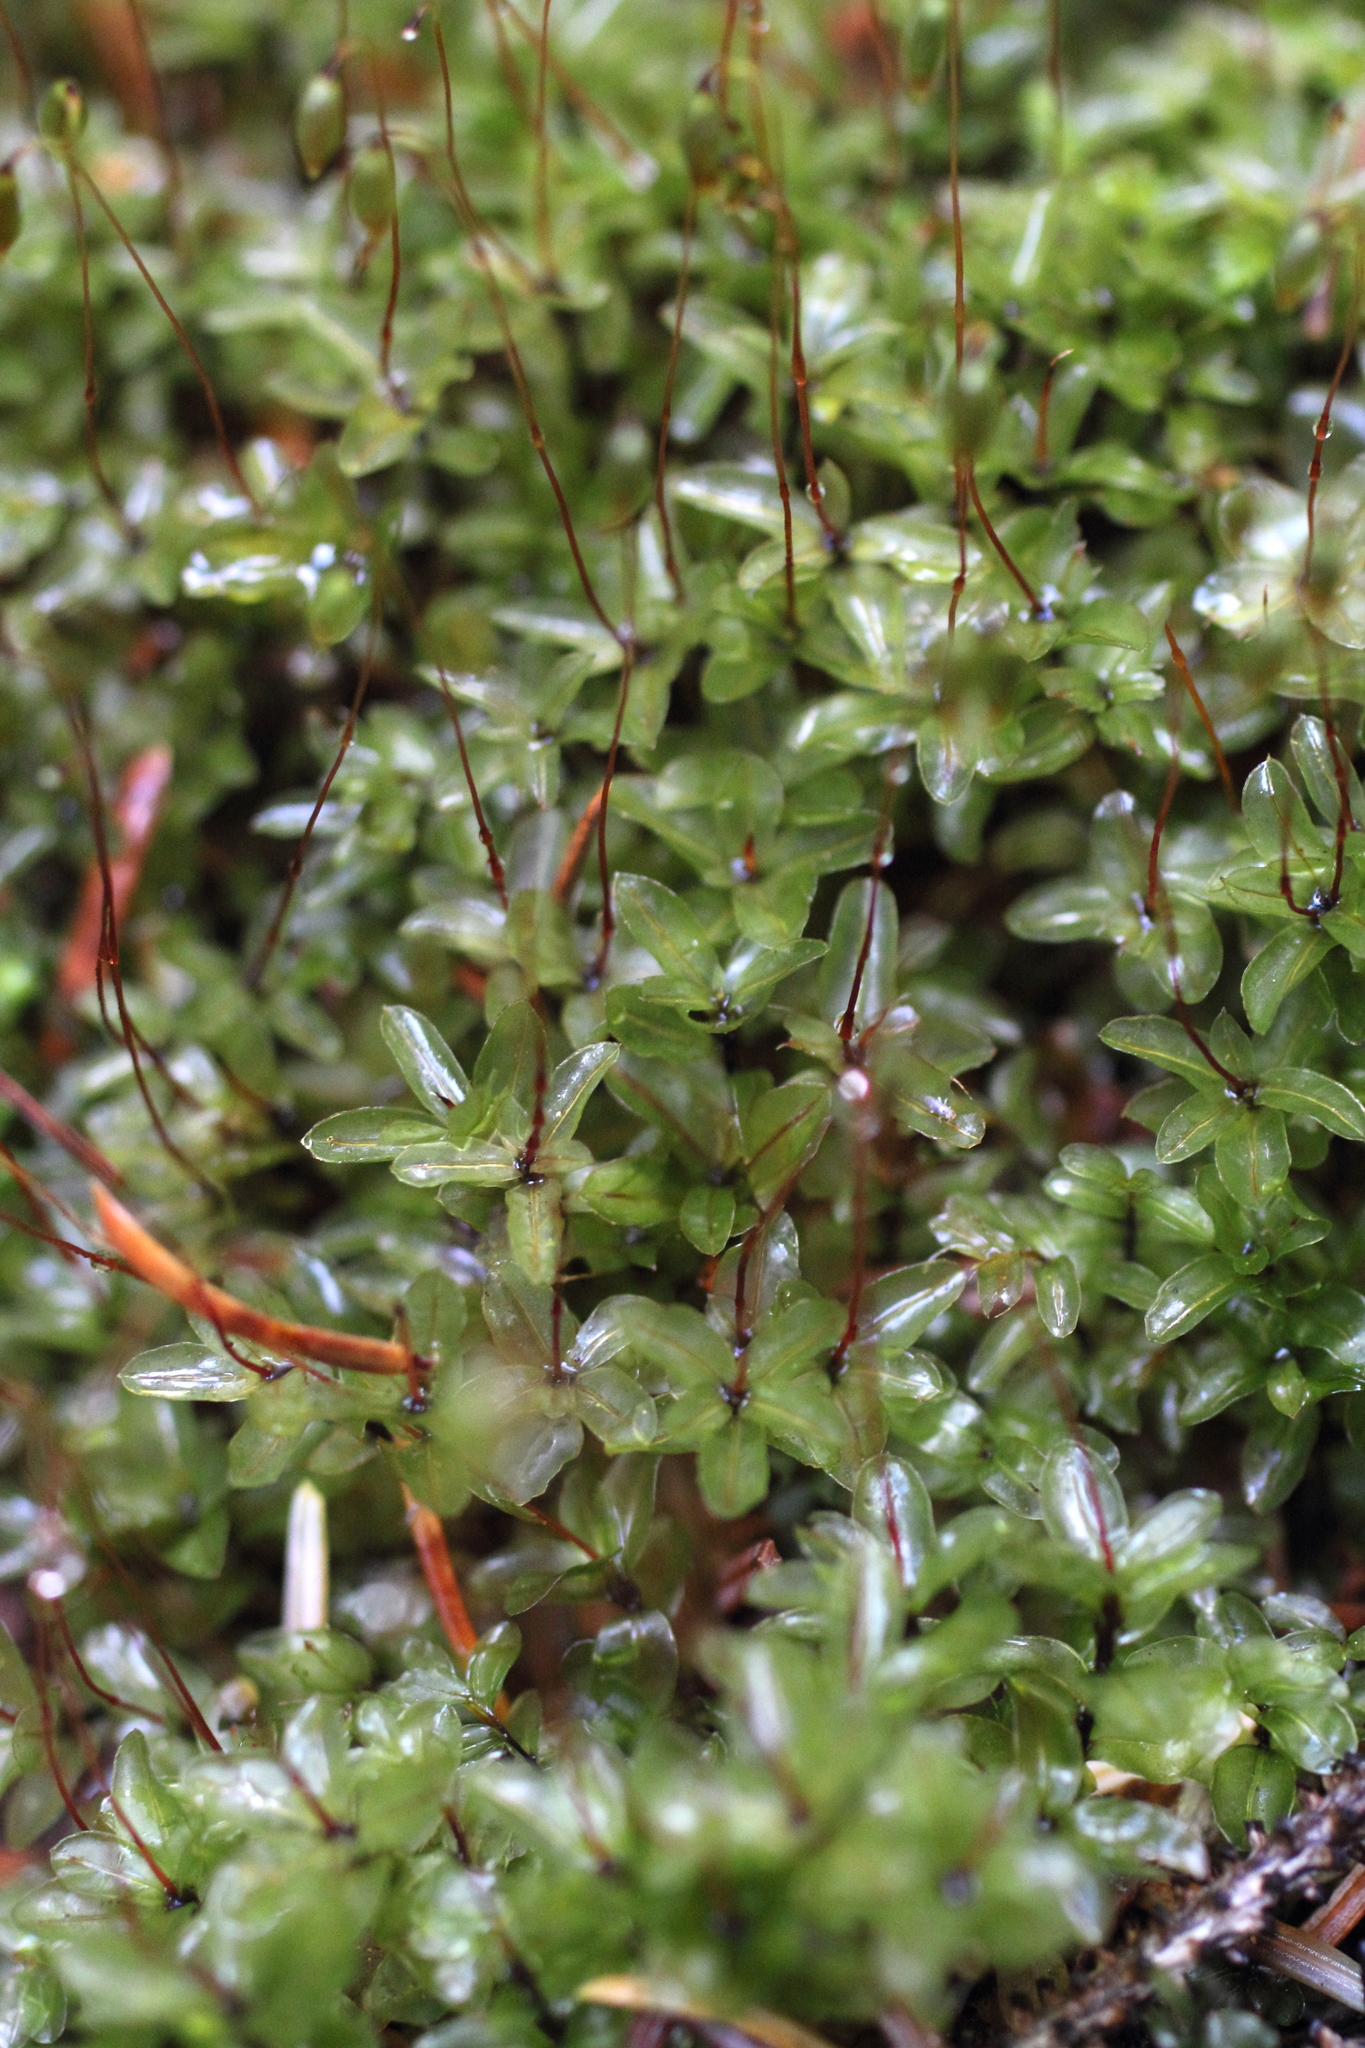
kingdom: Plantae
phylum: Bryophyta
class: Bryopsida
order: Bryales
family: Mniaceae
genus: Rhizomnium
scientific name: Rhizomnium glabrescens
